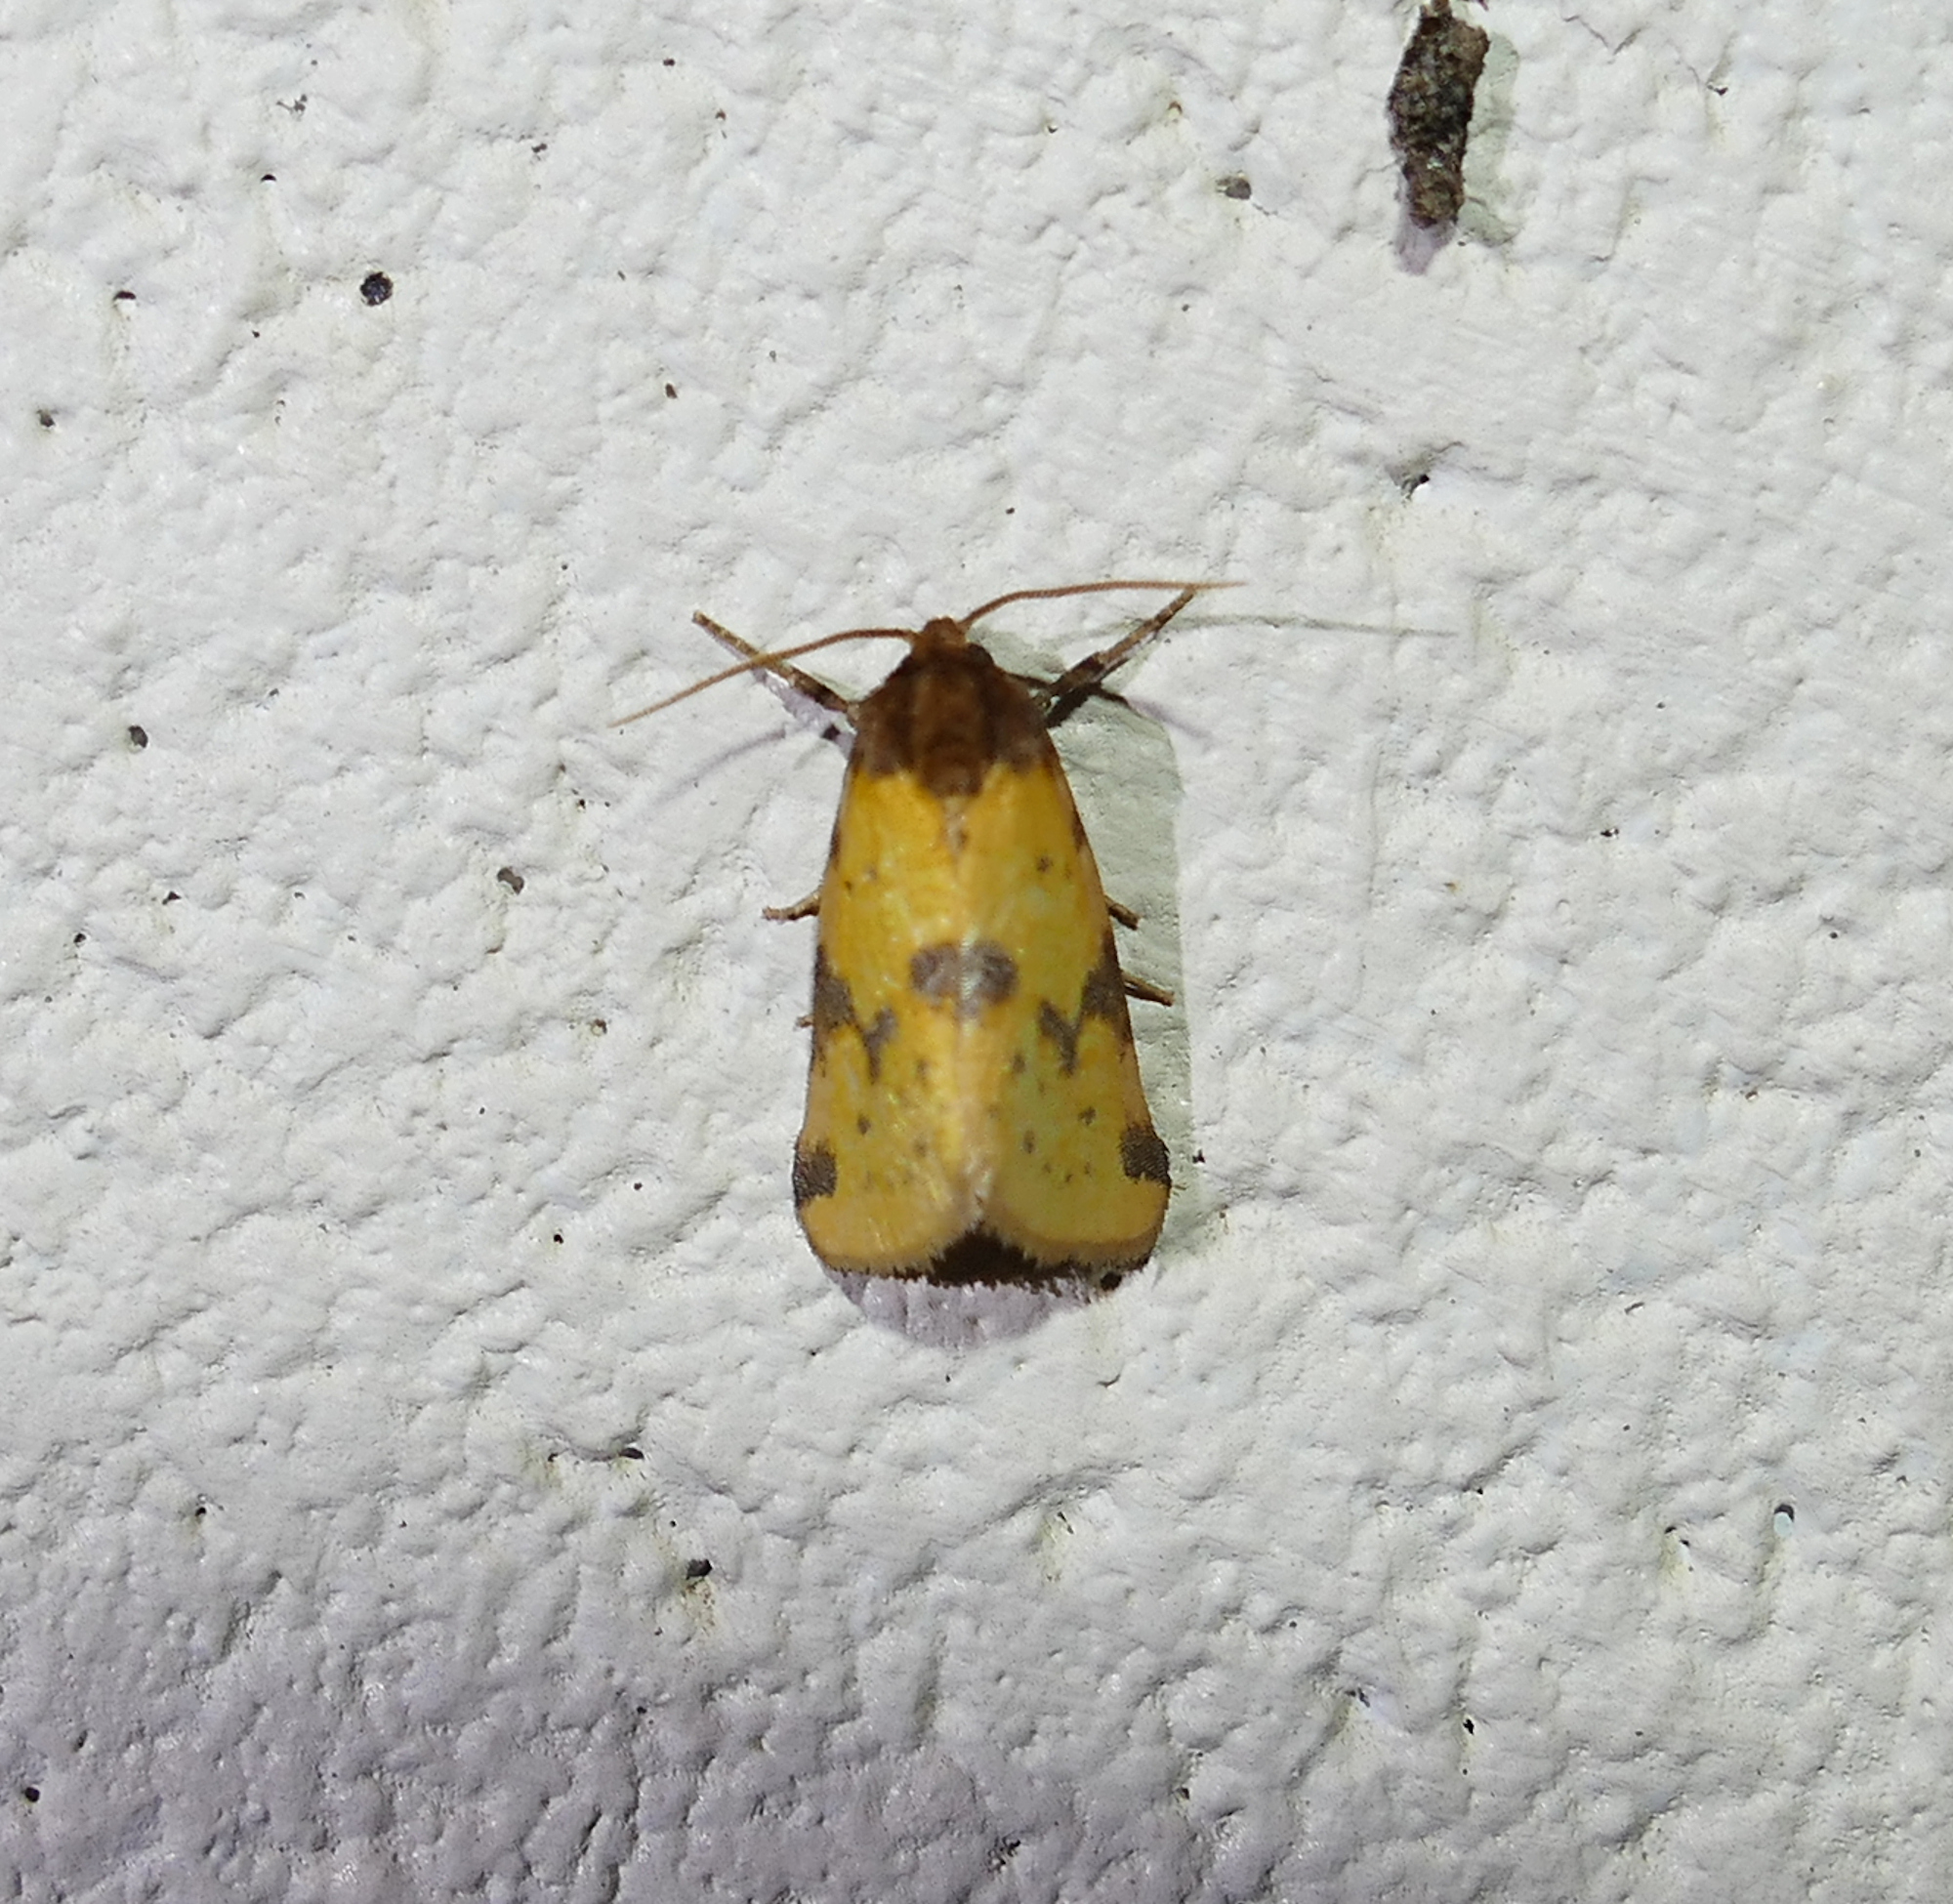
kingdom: Animalia
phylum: Arthropoda
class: Insecta
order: Lepidoptera
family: Noctuidae
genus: Azenia
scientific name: Azenia obtusa
